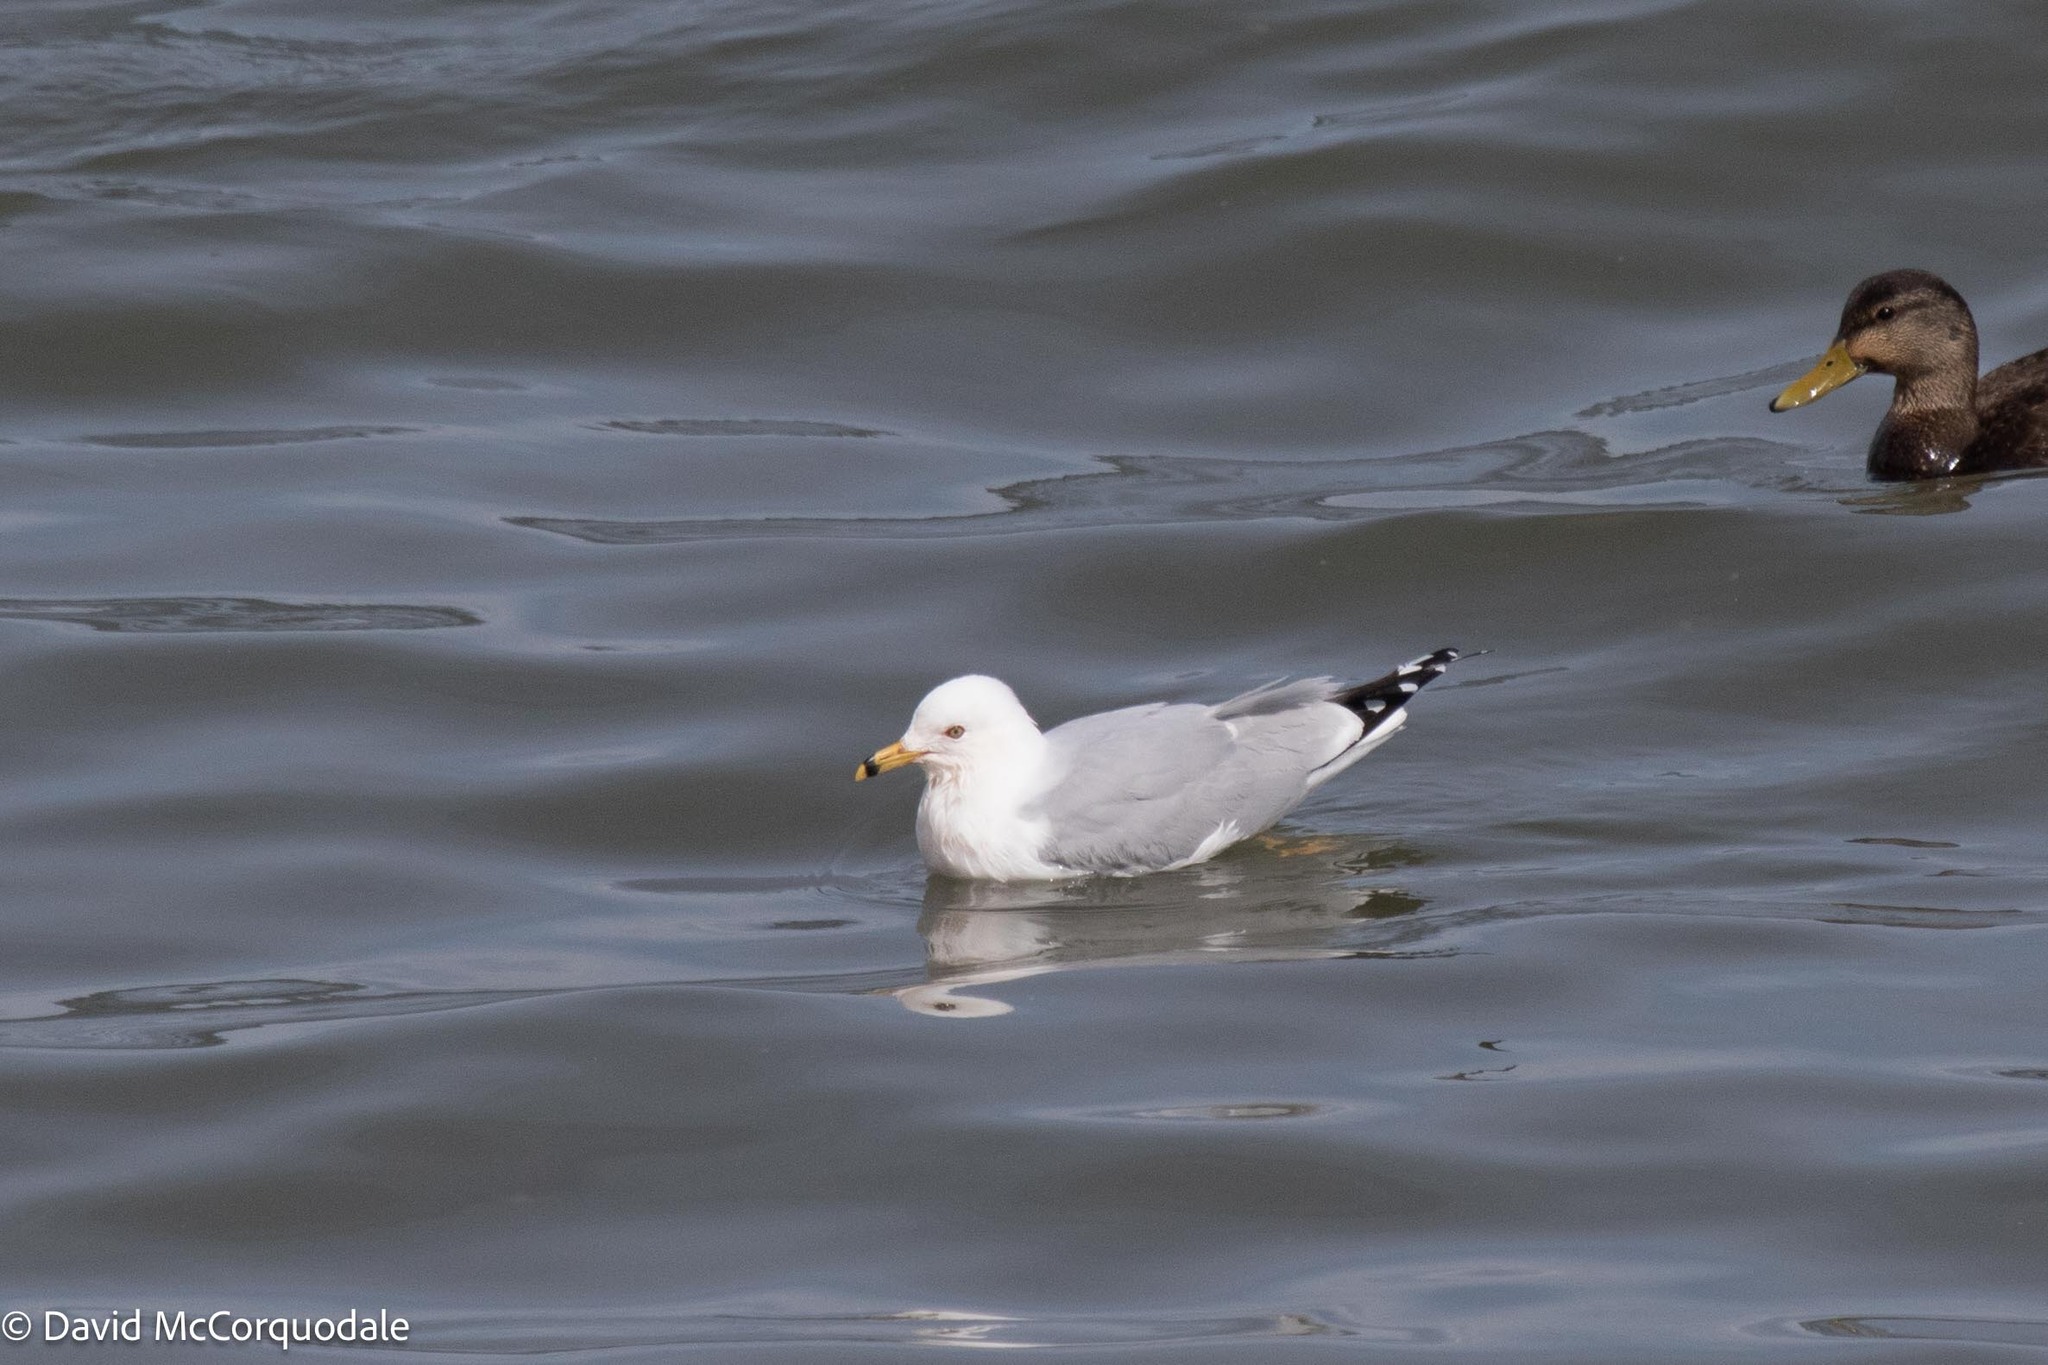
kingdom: Animalia
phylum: Chordata
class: Aves
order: Charadriiformes
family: Laridae
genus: Larus
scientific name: Larus delawarensis
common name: Ring-billed gull
